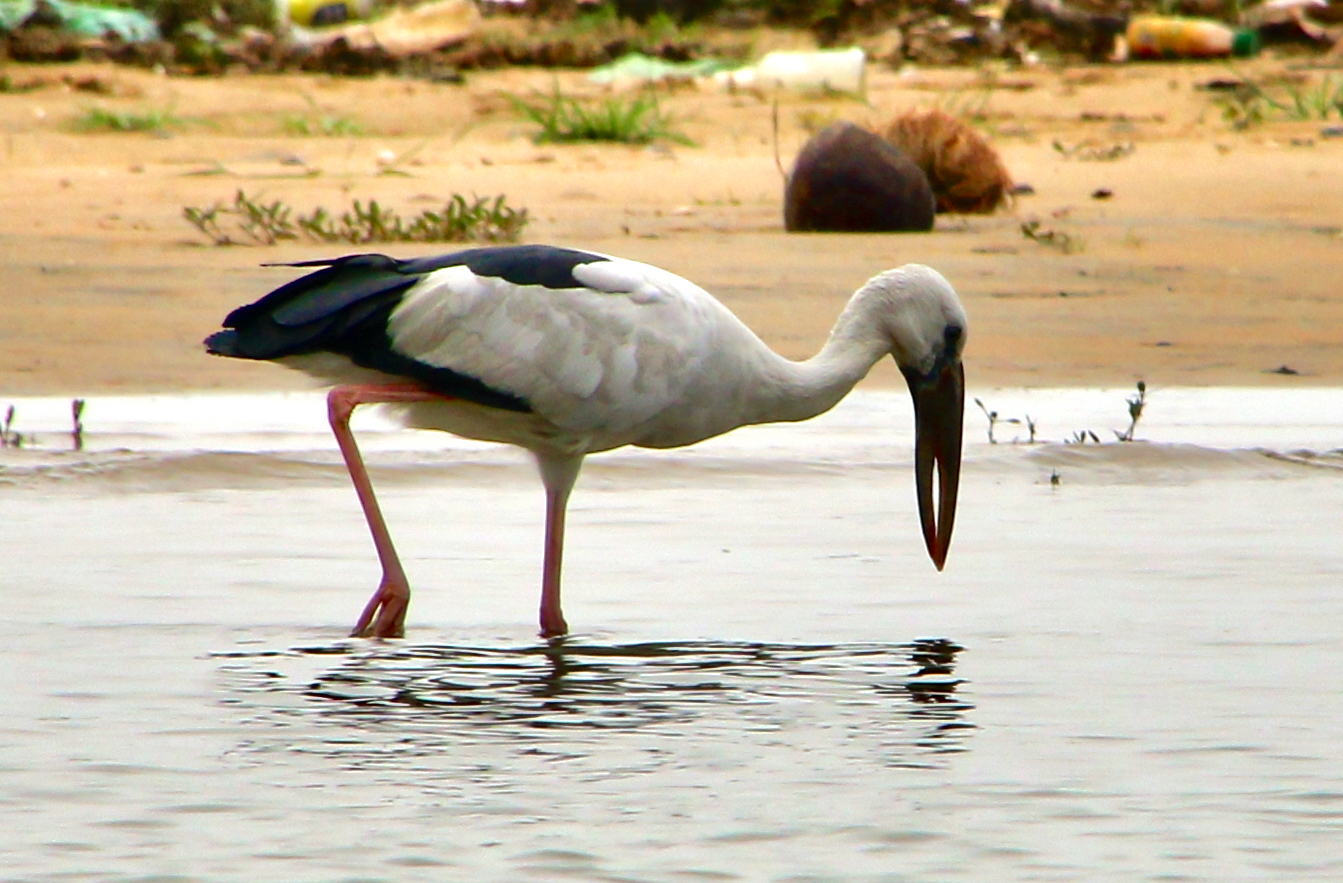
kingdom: Animalia
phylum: Chordata
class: Aves
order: Ciconiiformes
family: Ciconiidae
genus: Anastomus
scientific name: Anastomus oscitans
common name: Asian openbill
